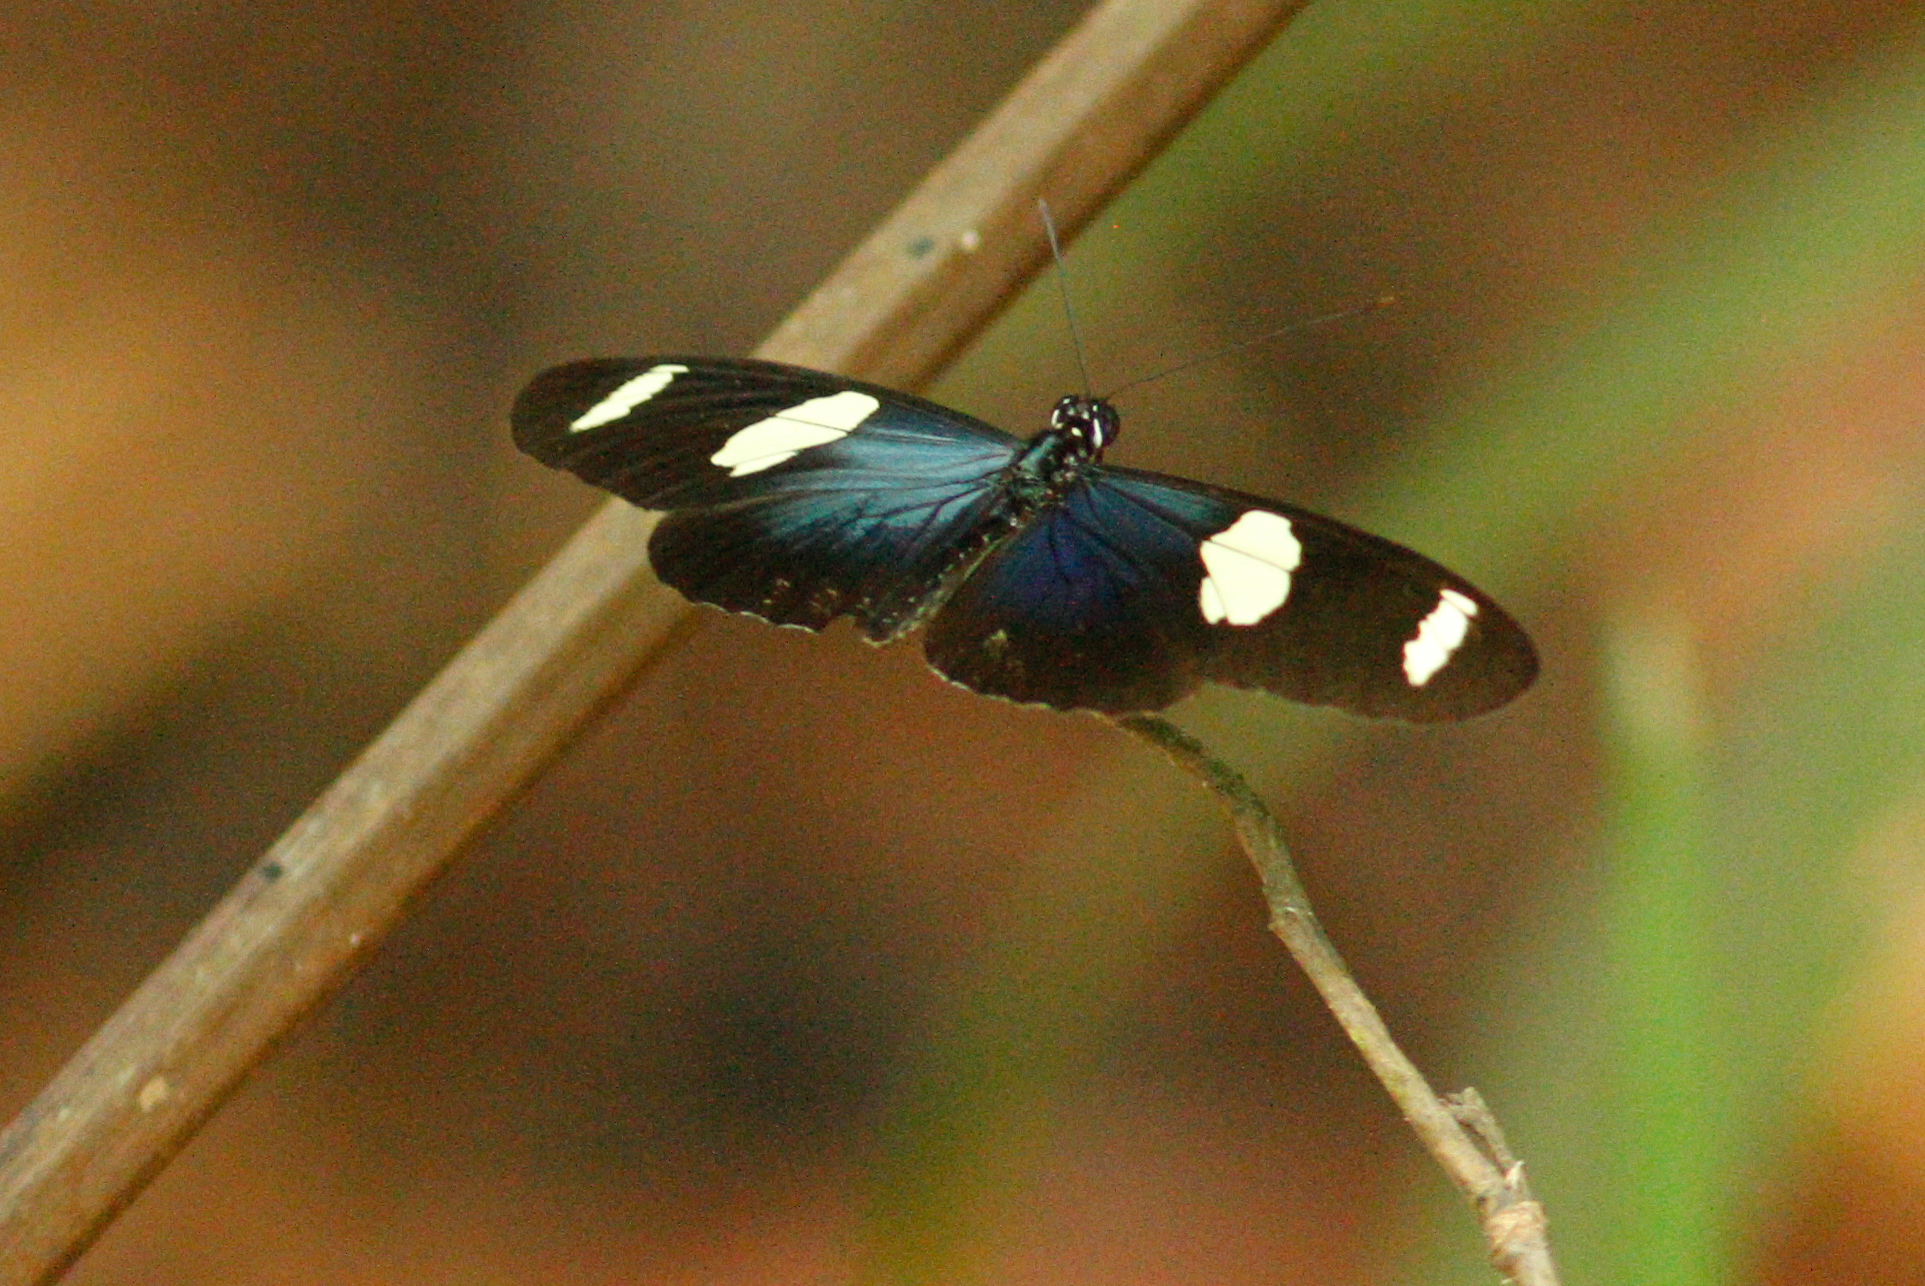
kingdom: Animalia
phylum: Arthropoda
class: Insecta
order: Lepidoptera
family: Nymphalidae
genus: Heliconius
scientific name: Heliconius sara
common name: Sara longwing
